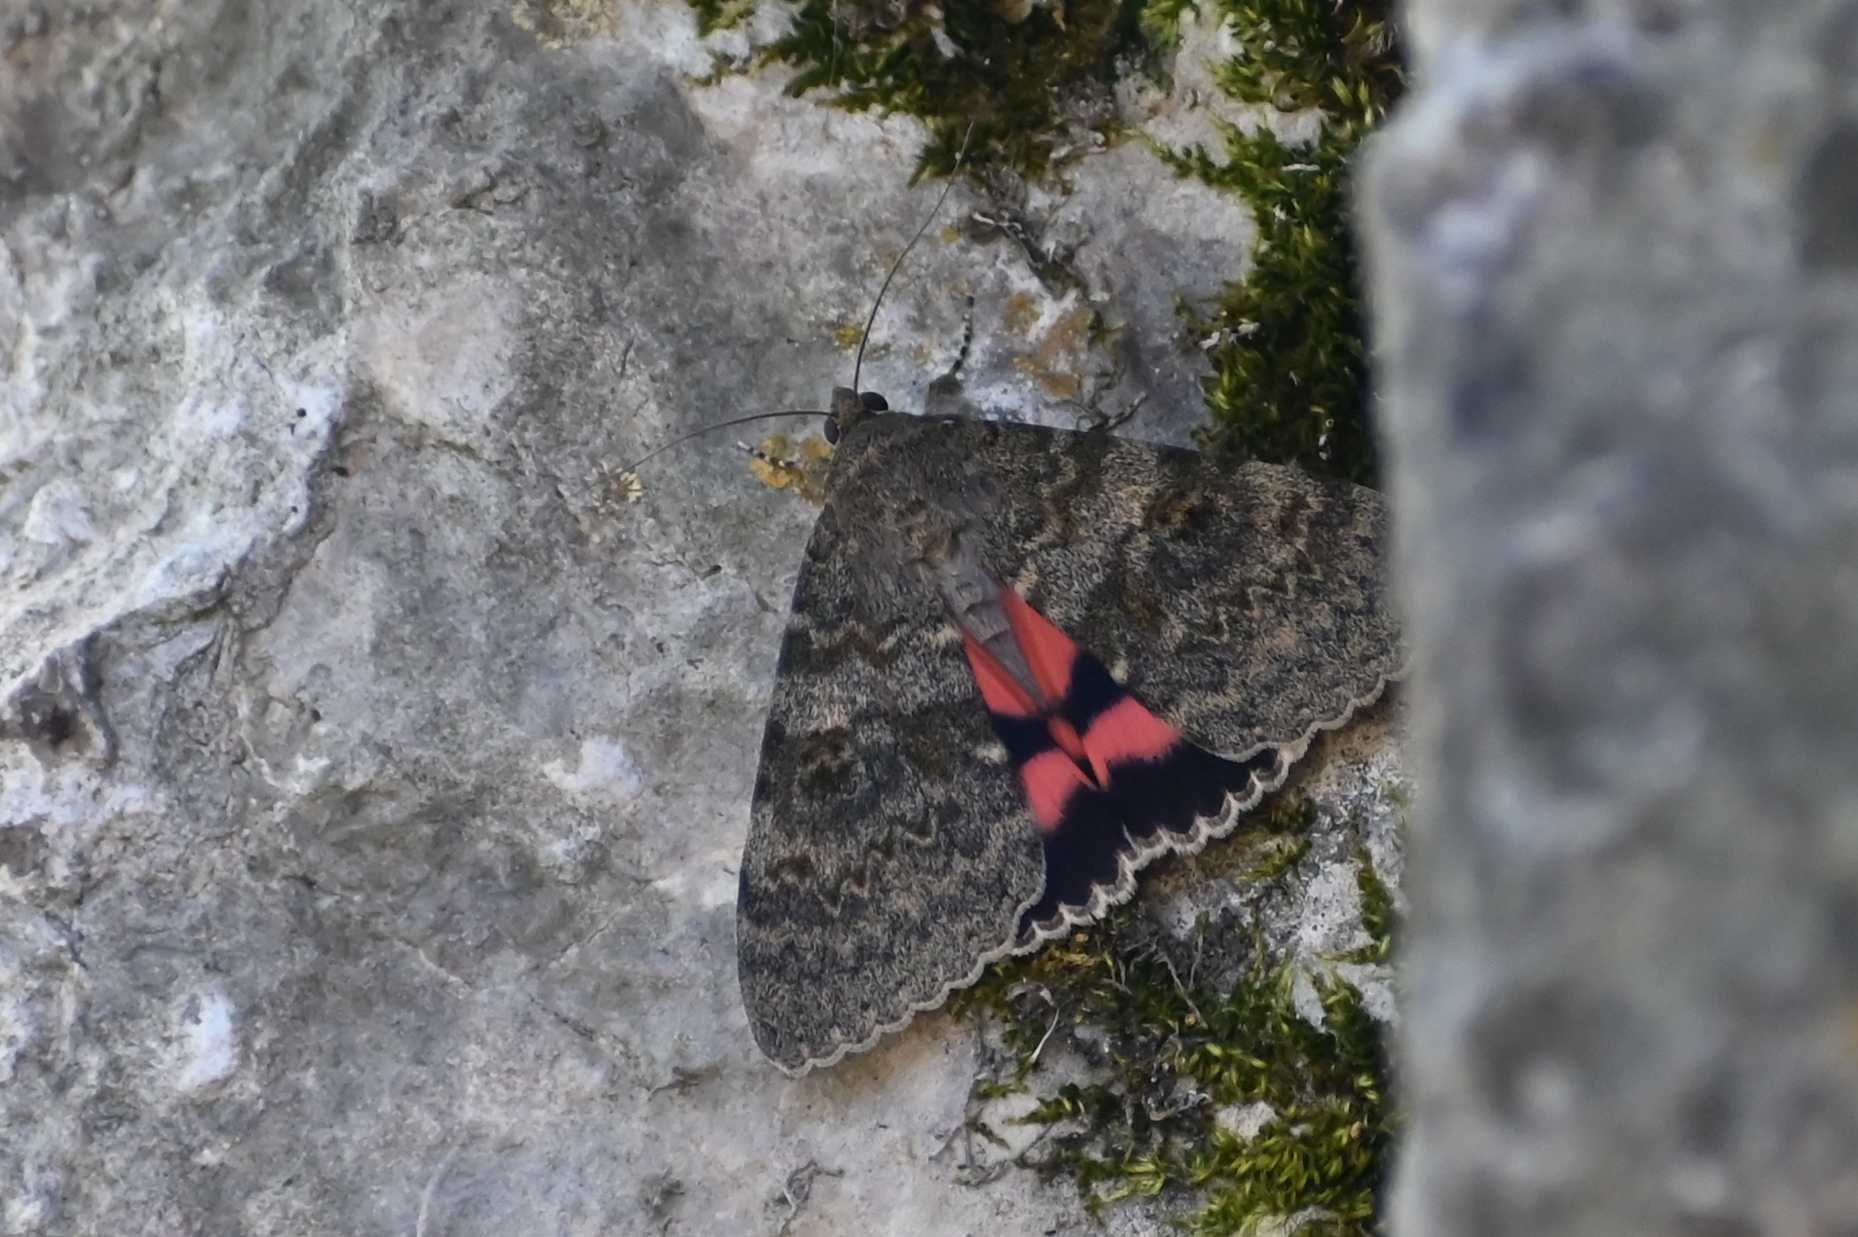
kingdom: Animalia
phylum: Arthropoda
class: Insecta
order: Lepidoptera
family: Erebidae
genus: Catocala
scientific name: Catocala elocata
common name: French red underwing
